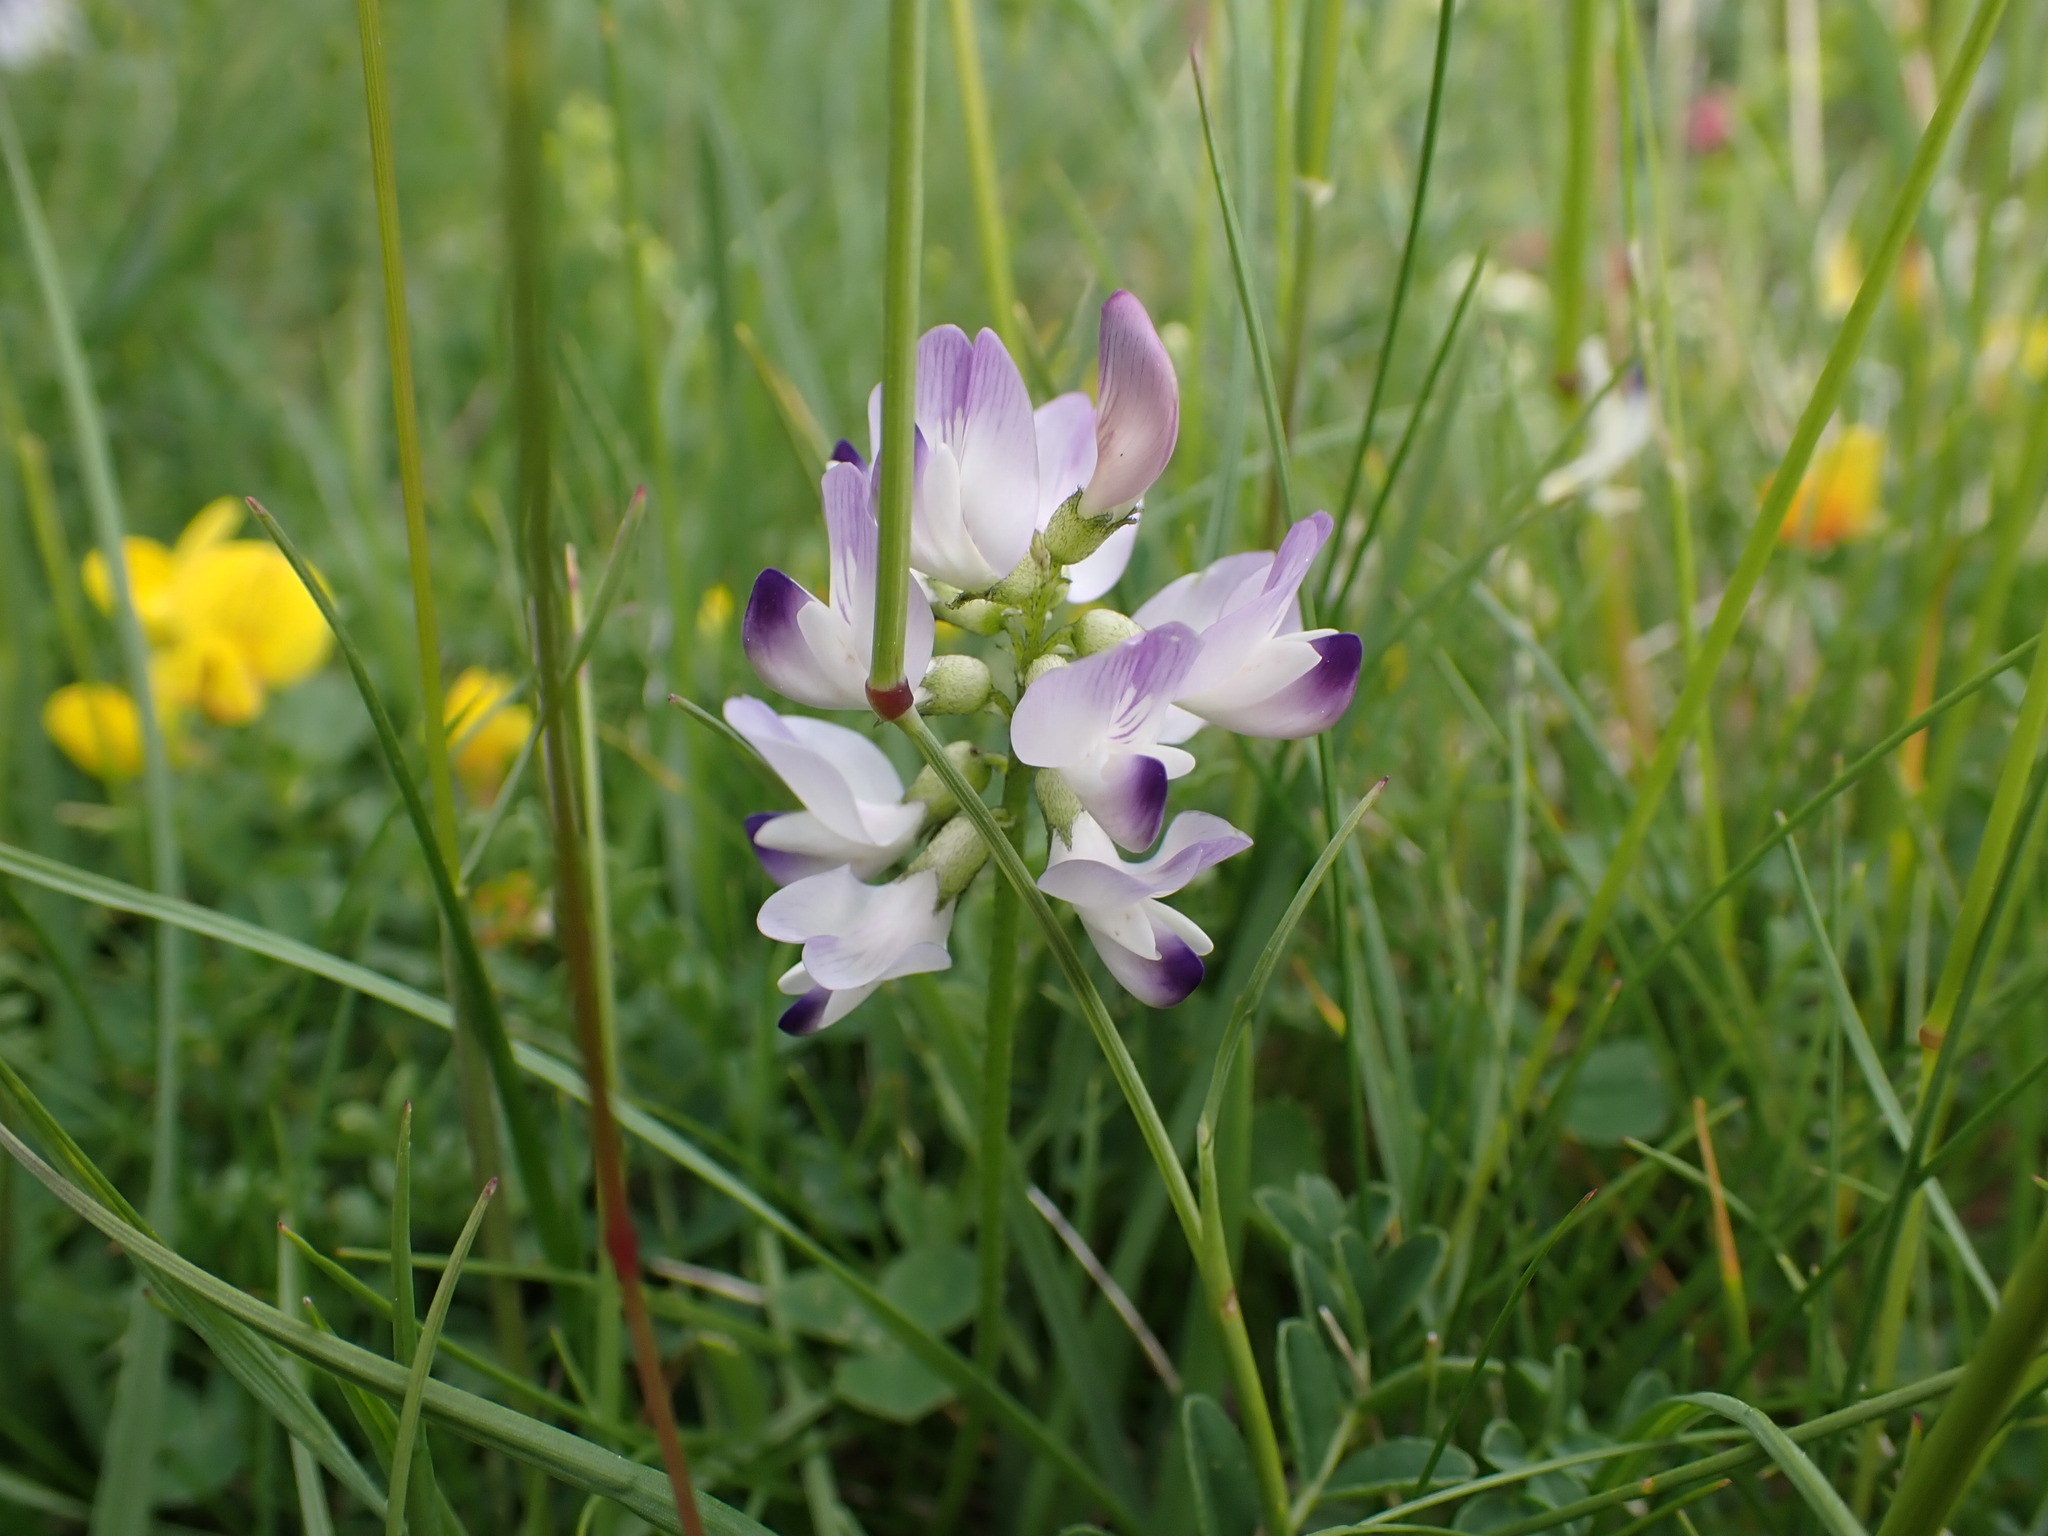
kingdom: Plantae
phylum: Tracheophyta
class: Magnoliopsida
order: Fabales
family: Fabaceae
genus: Astragalus
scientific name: Astragalus alpinus
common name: Alpine milk-vetch
